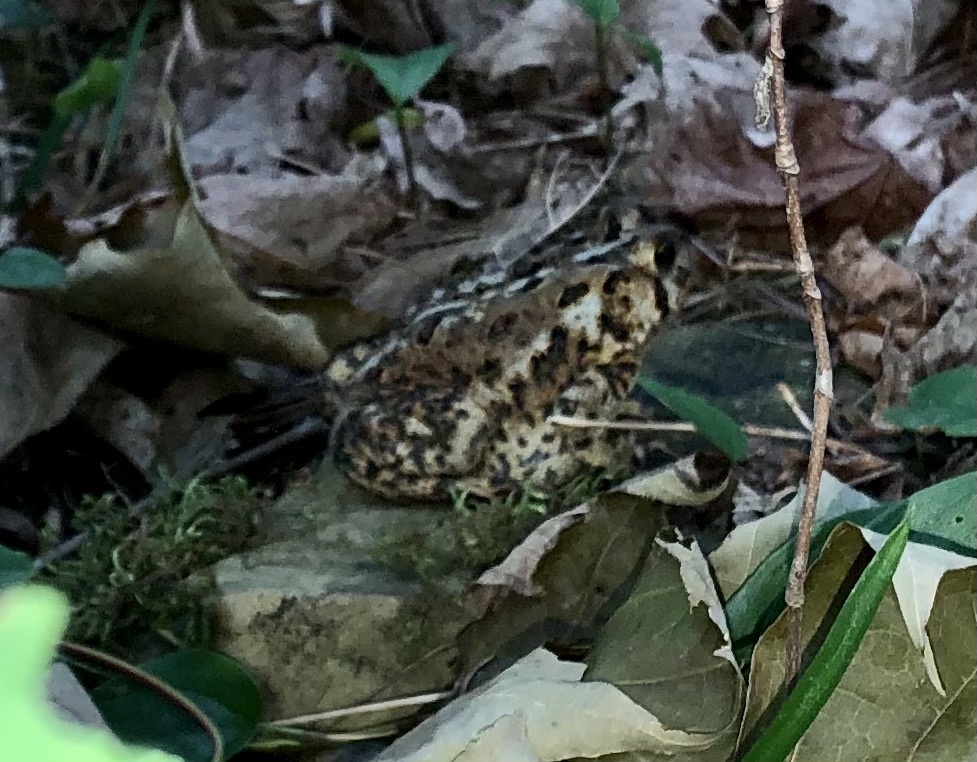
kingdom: Animalia
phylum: Chordata
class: Amphibia
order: Anura
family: Bufonidae
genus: Anaxyrus
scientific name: Anaxyrus americanus
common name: American toad
